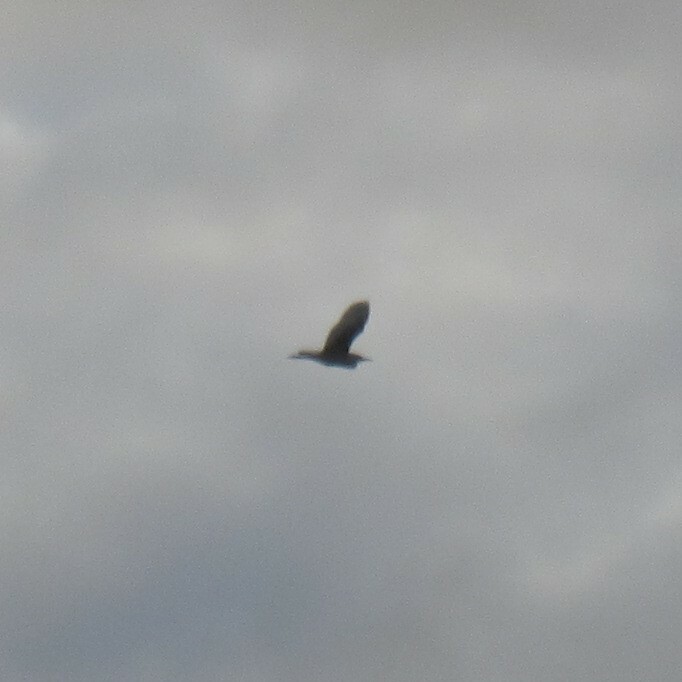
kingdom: Animalia
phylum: Chordata
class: Aves
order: Pelecaniformes
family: Ardeidae
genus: Nycticorax
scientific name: Nycticorax nycticorax
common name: Black-crowned night heron
